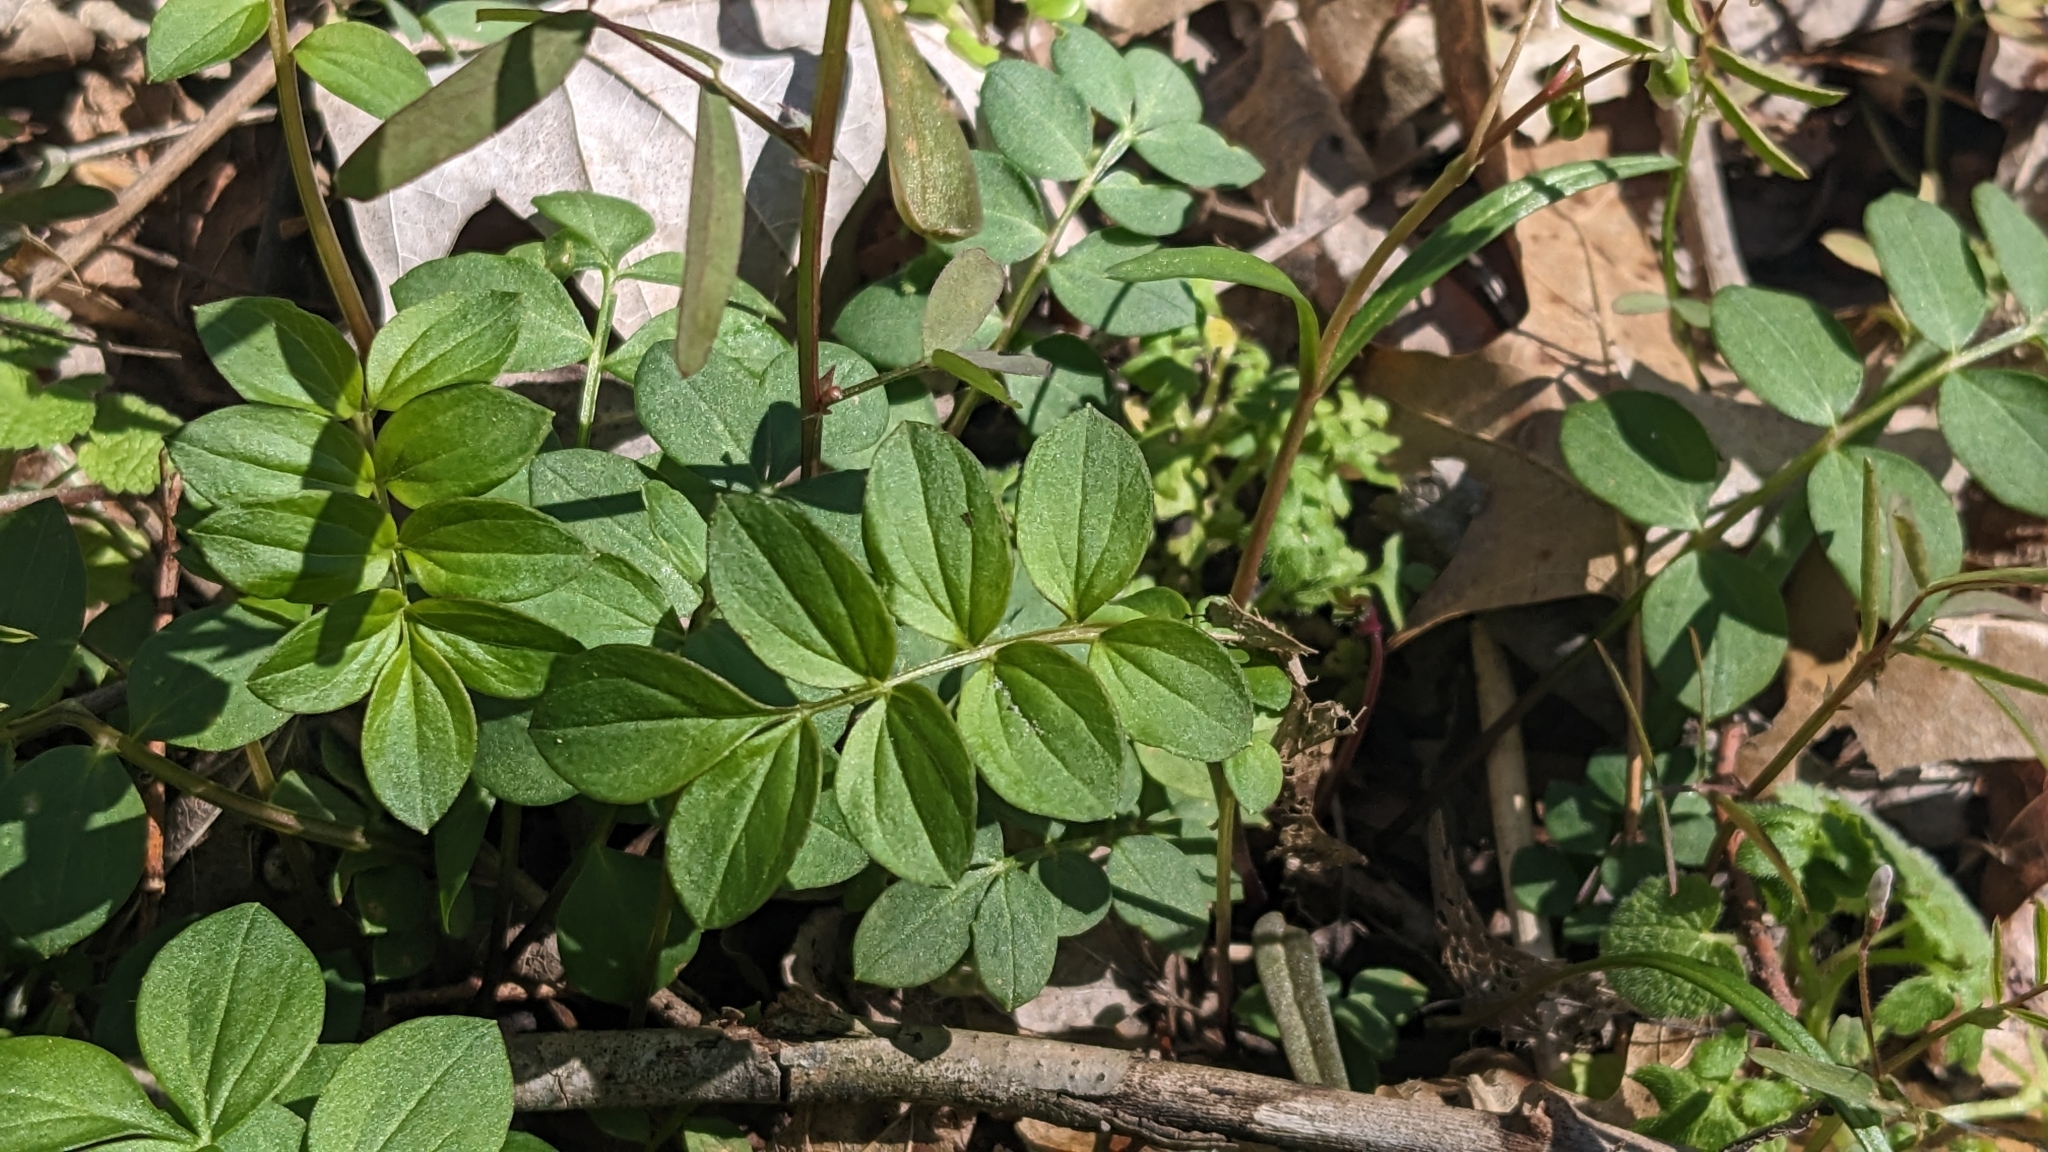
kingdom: Plantae
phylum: Tracheophyta
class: Magnoliopsida
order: Ericales
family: Polemoniaceae
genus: Polemonium
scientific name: Polemonium reptans
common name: Creeping jacob's-ladder
